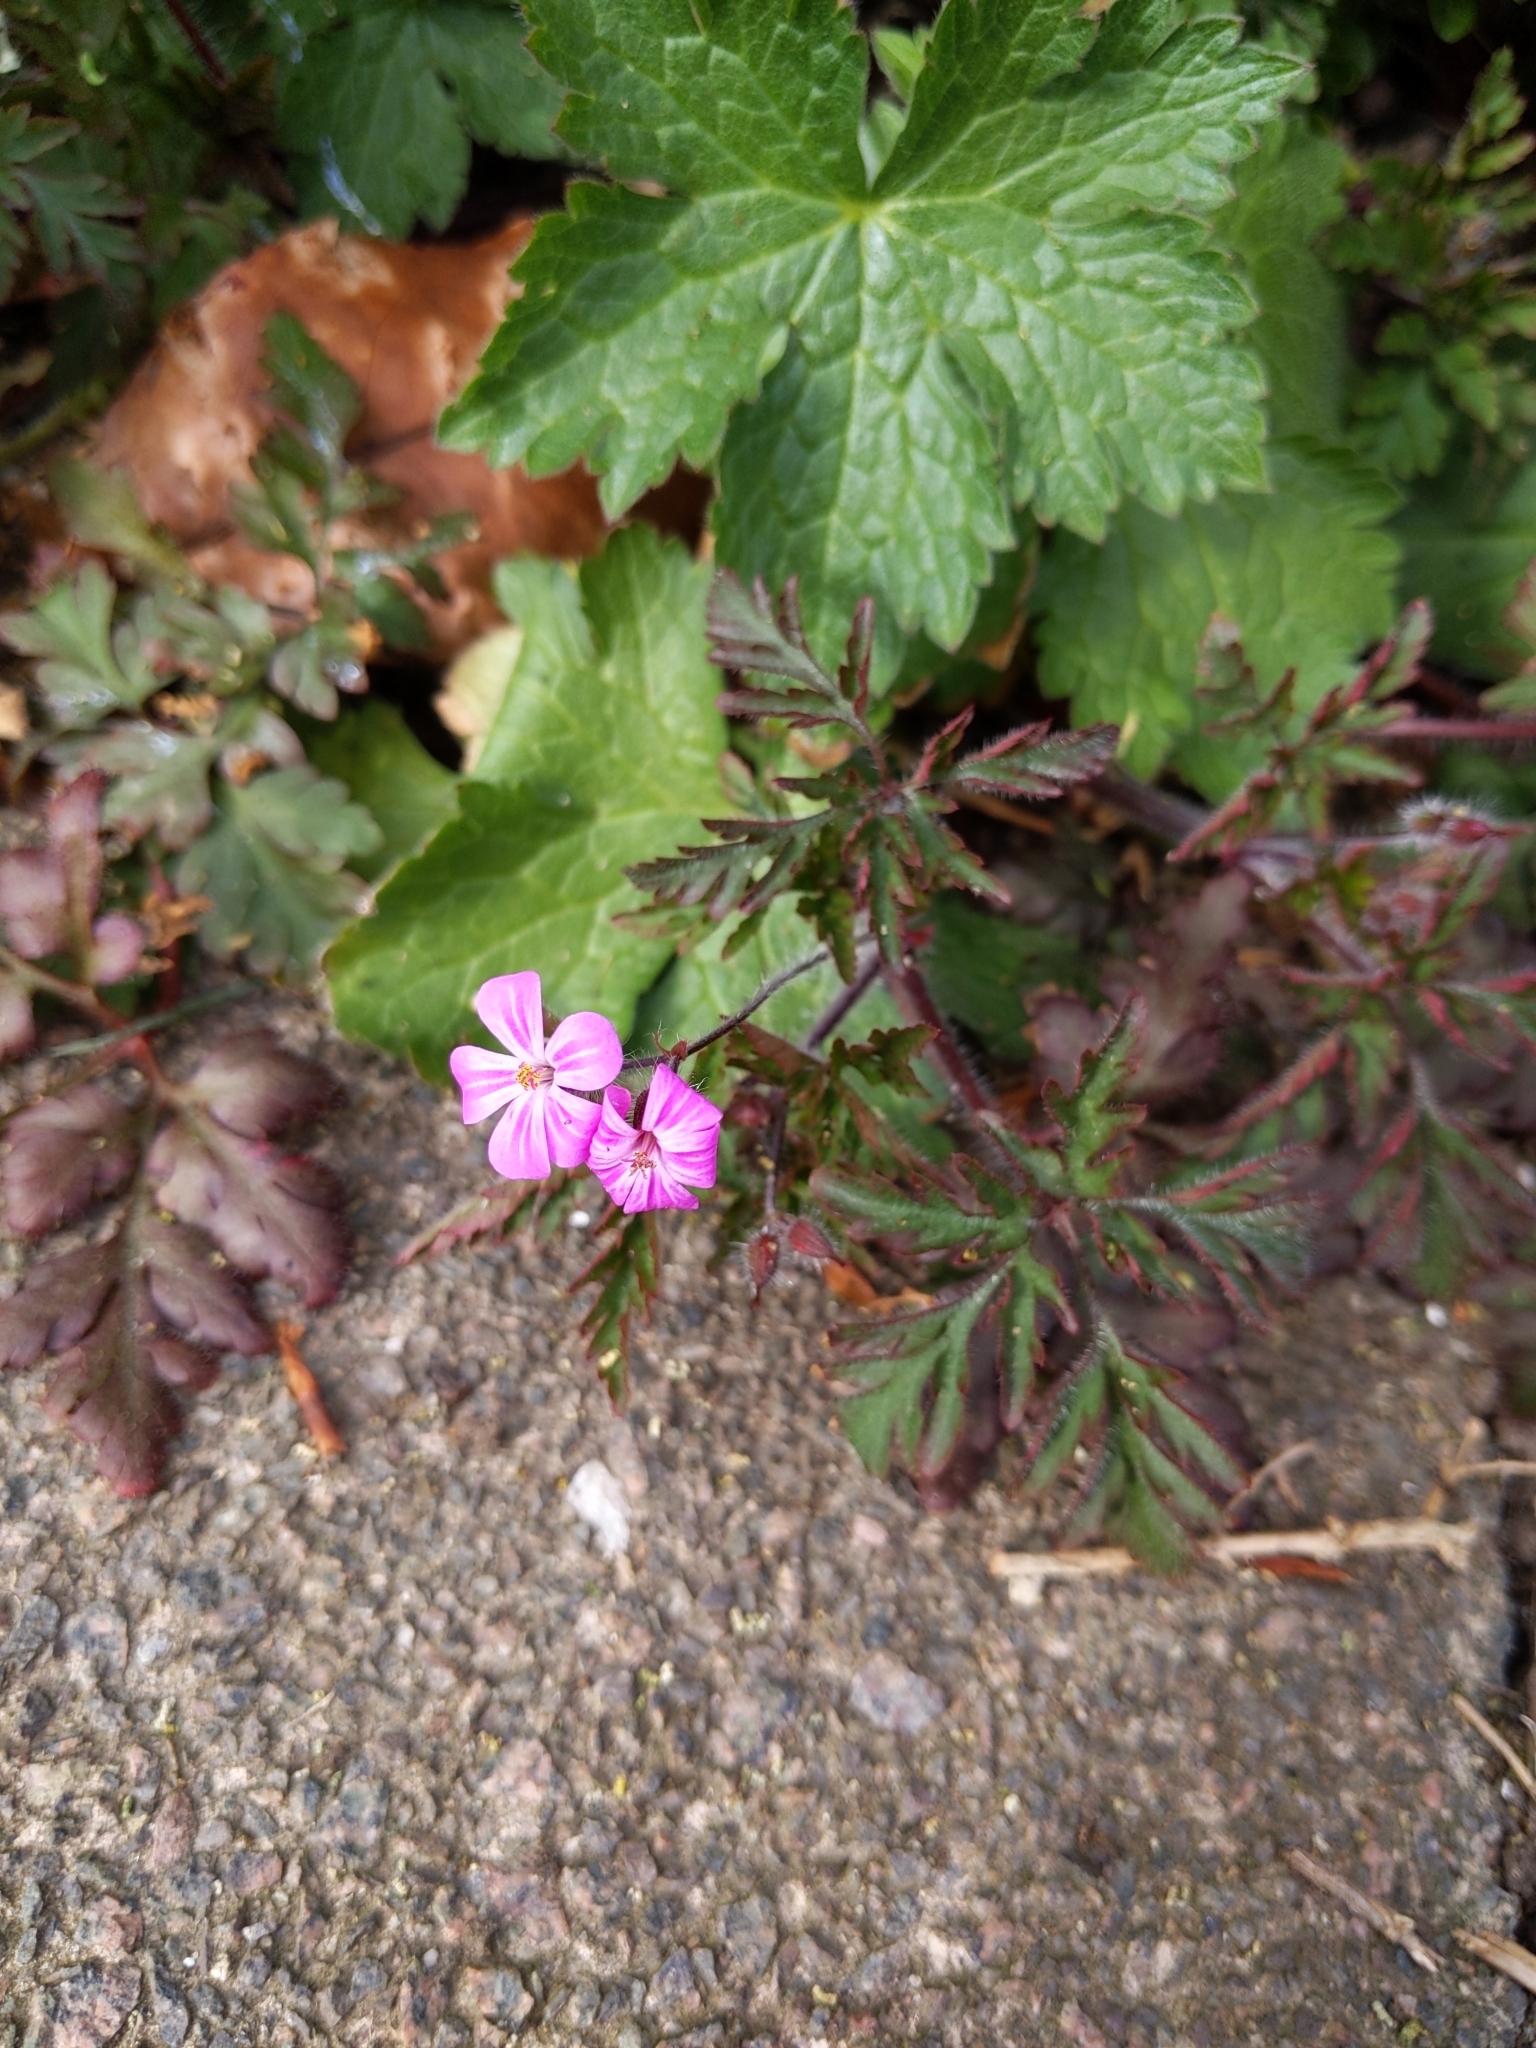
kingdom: Plantae
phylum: Tracheophyta
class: Magnoliopsida
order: Geraniales
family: Geraniaceae
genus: Geranium
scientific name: Geranium robertianum
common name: Herb-robert
